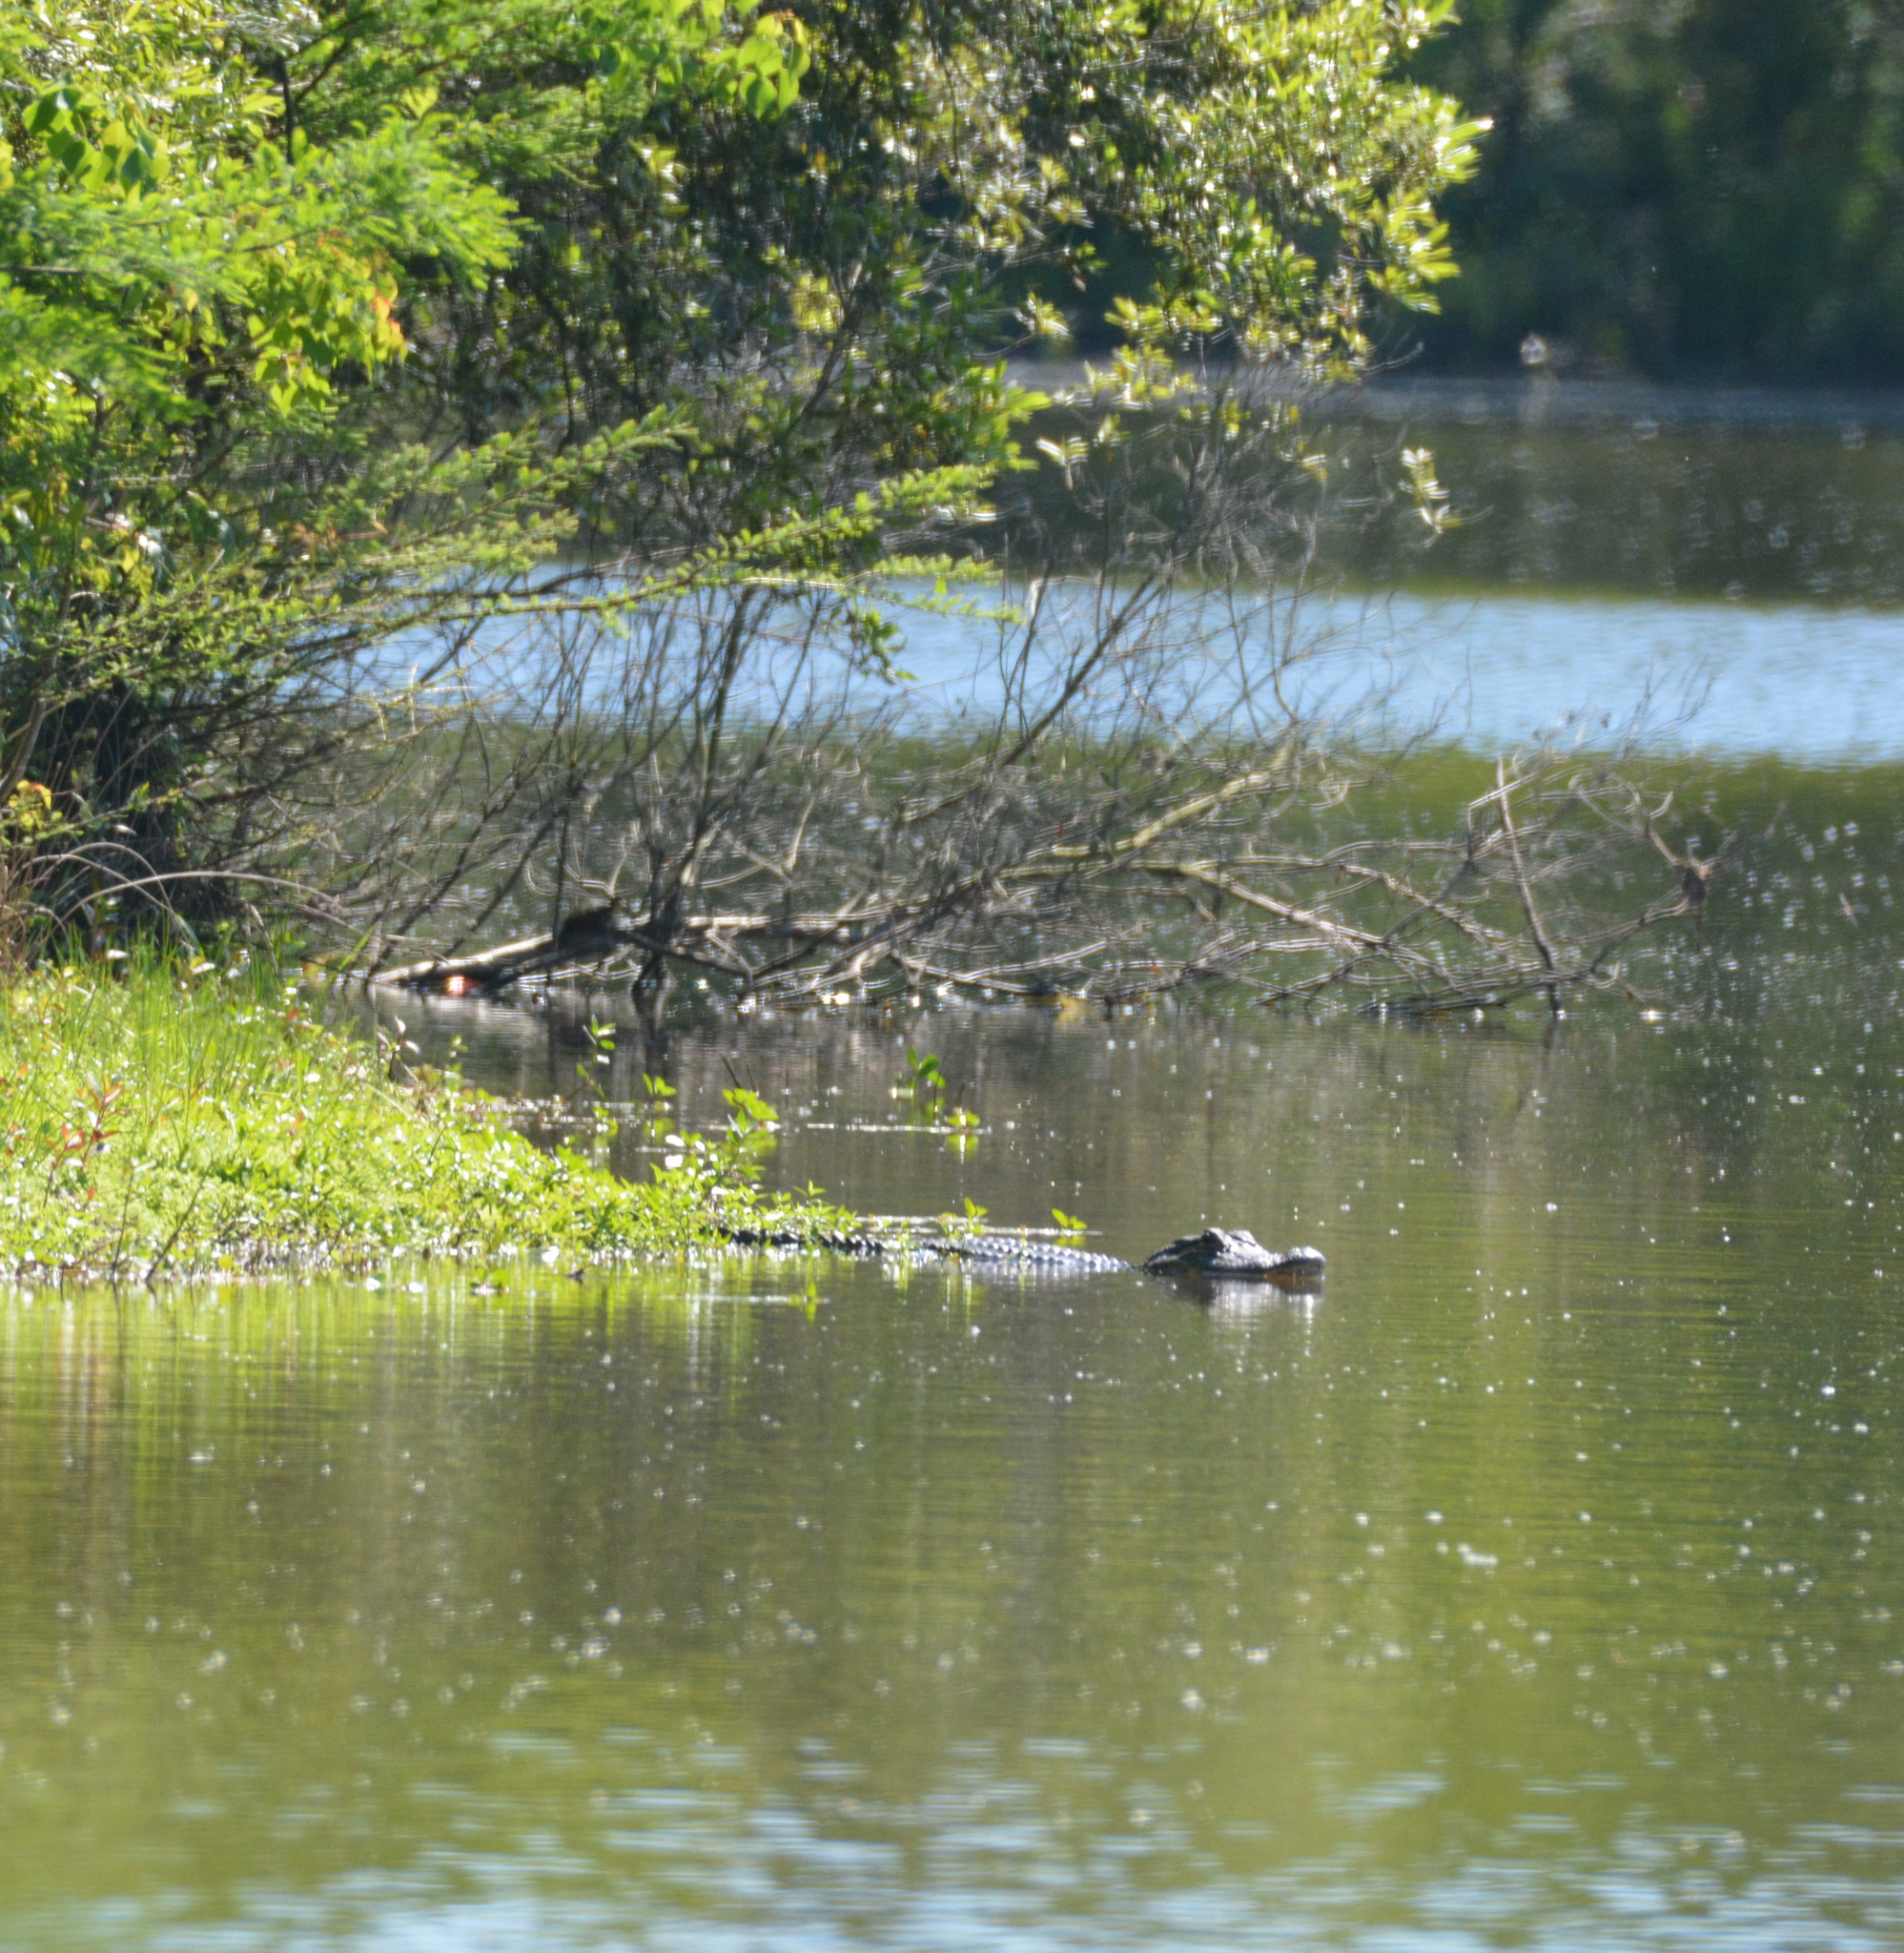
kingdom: Animalia
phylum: Chordata
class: Crocodylia
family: Alligatoridae
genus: Alligator
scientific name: Alligator mississippiensis
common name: American alligator
